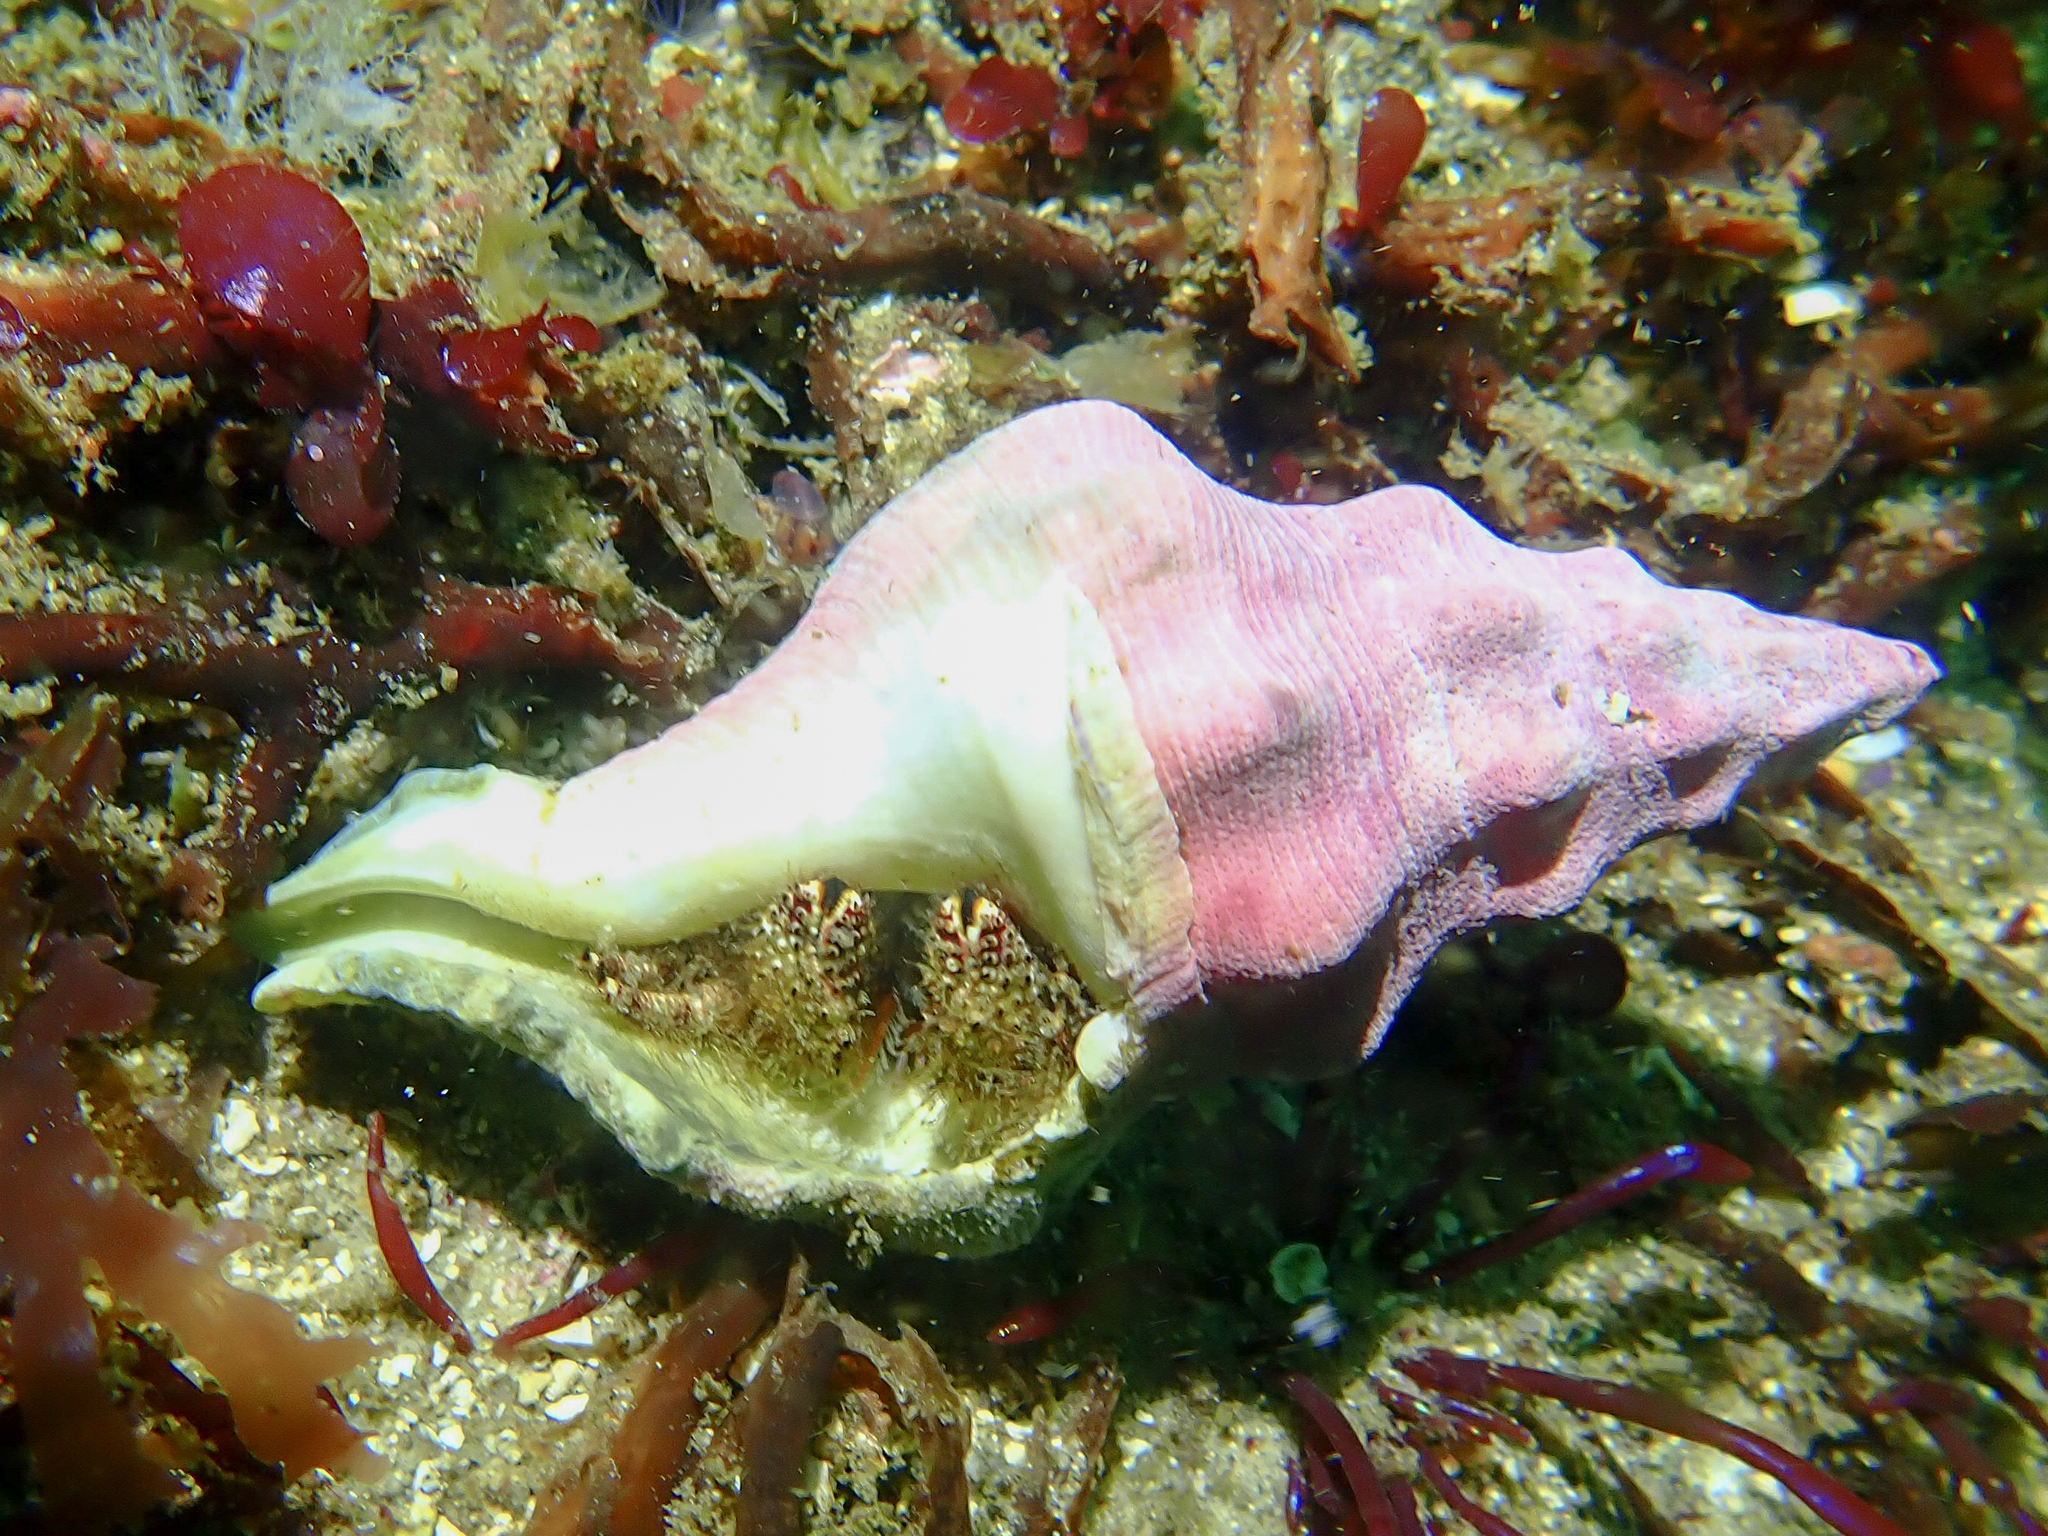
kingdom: Animalia
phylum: Arthropoda
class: Malacostraca
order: Decapoda
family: Diogenidae
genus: Paguristes
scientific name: Paguristes ulreyi
